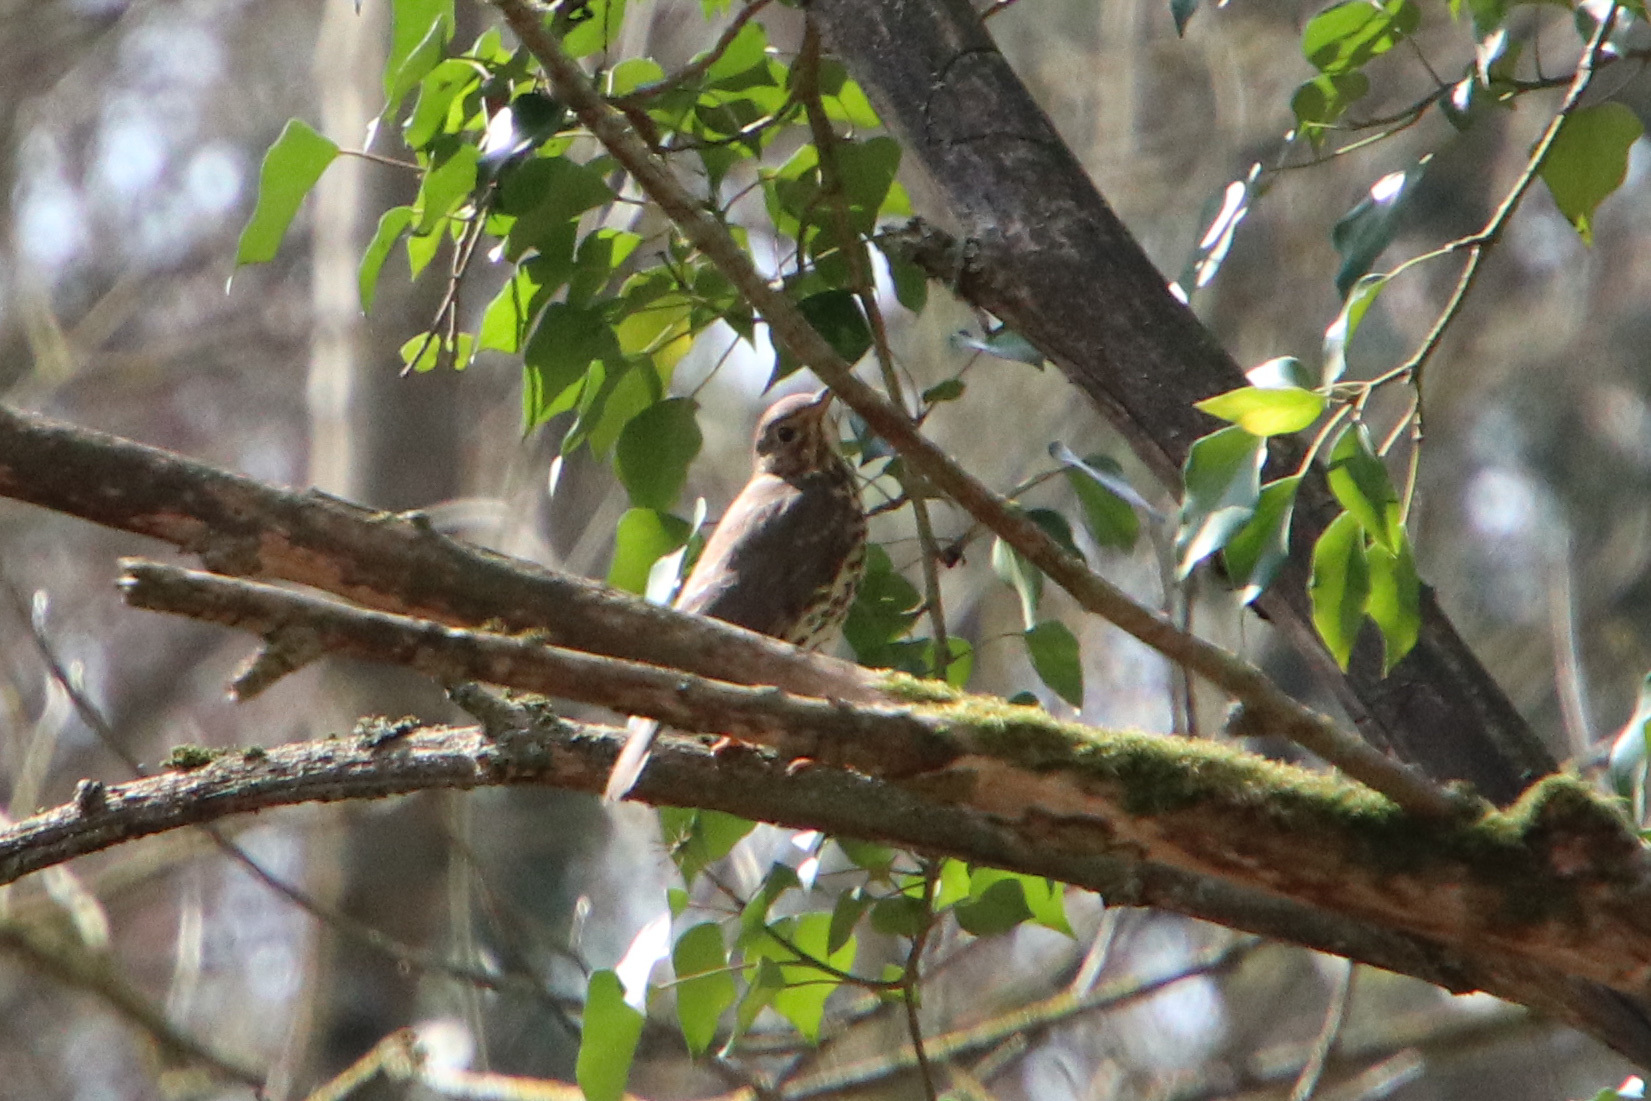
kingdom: Animalia
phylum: Chordata
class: Aves
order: Passeriformes
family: Turdidae
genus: Turdus
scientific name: Turdus philomelos
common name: Song thrush
